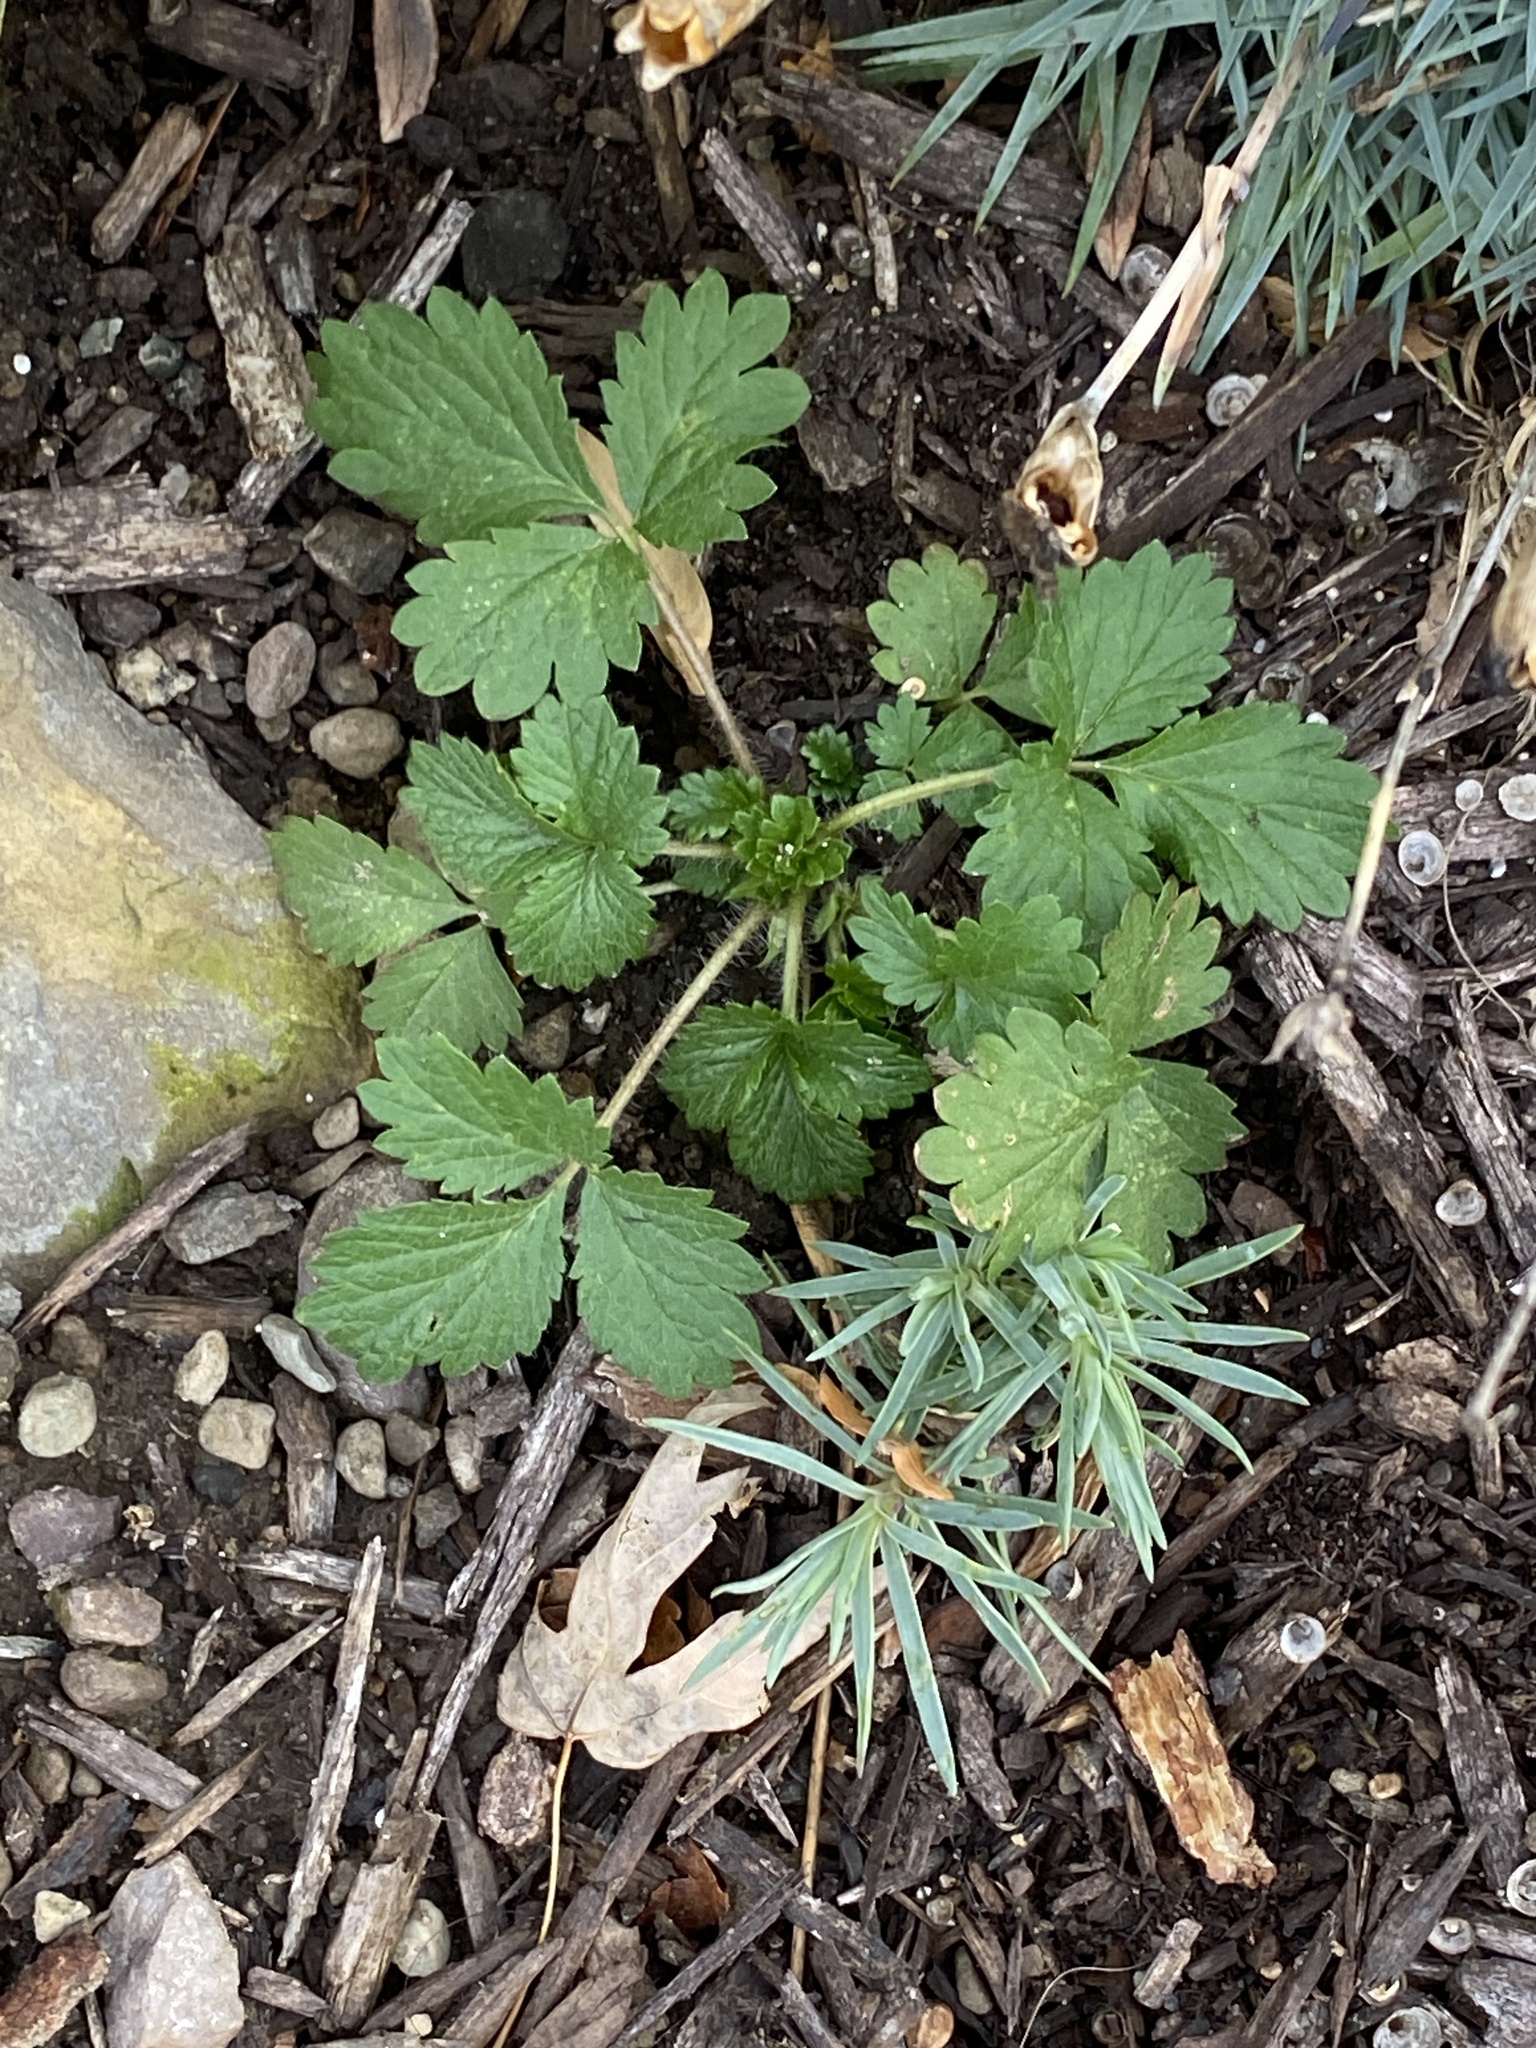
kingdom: Plantae
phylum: Tracheophyta
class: Magnoliopsida
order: Rosales
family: Rosaceae
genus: Potentilla
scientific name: Potentilla norvegica
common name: Ternate-leaved cinquefoil
